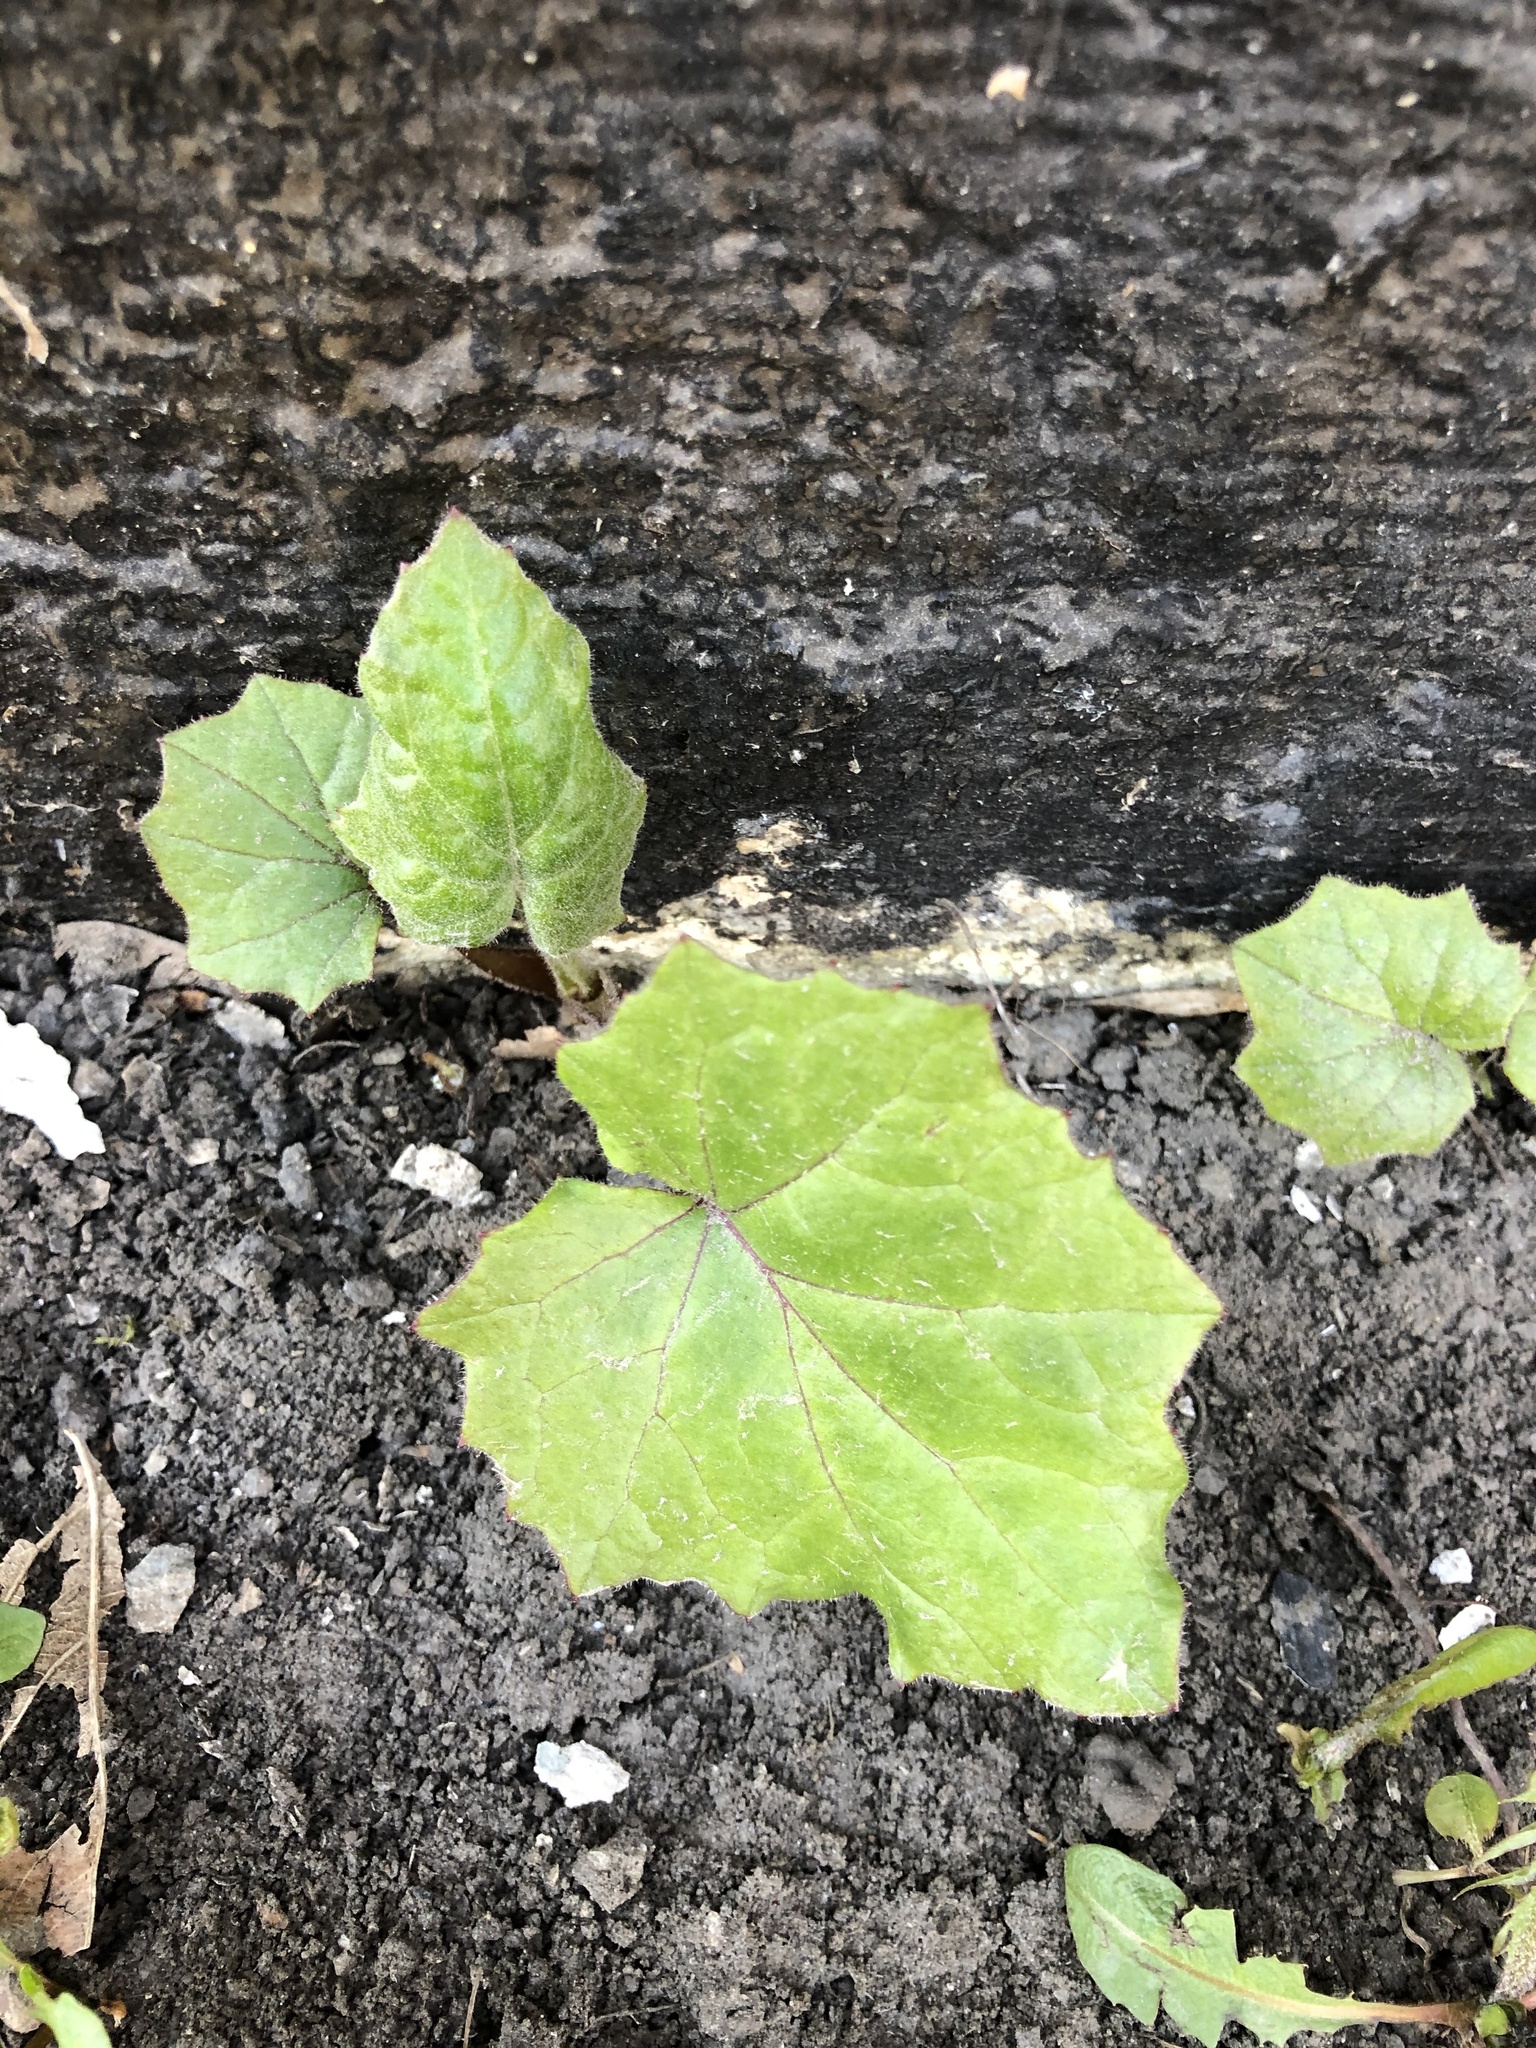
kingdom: Plantae
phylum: Tracheophyta
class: Magnoliopsida
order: Asterales
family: Asteraceae
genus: Tussilago
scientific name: Tussilago farfara
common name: Coltsfoot
